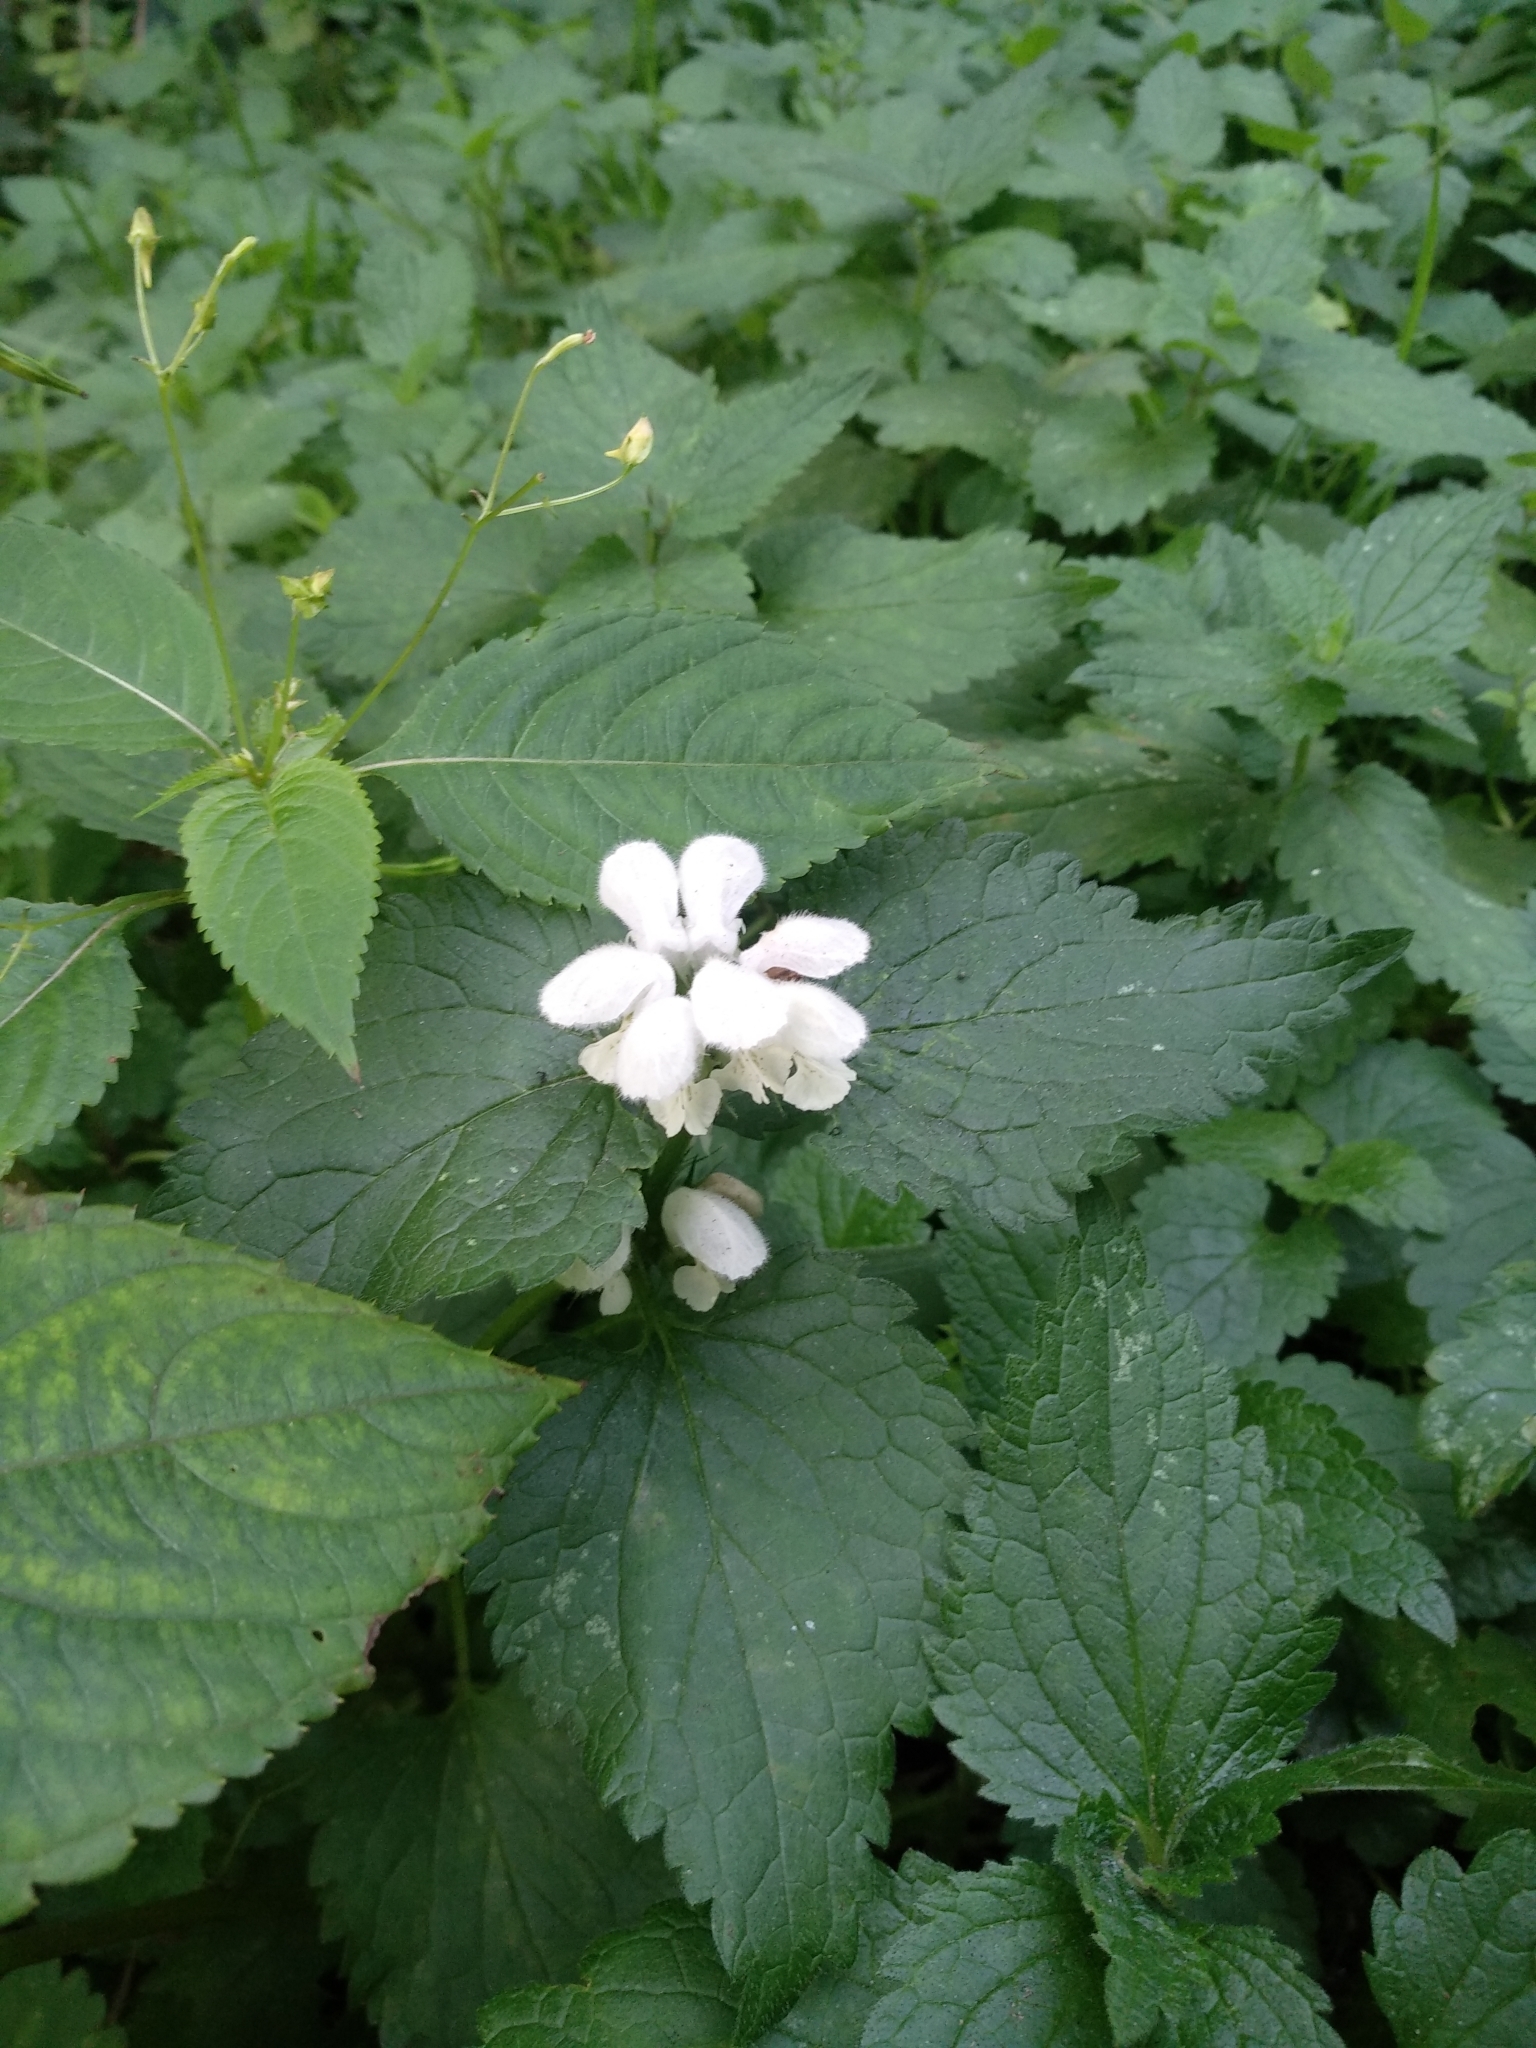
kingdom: Plantae
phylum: Tracheophyta
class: Magnoliopsida
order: Lamiales
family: Lamiaceae
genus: Lamium
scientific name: Lamium album
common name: White dead-nettle
